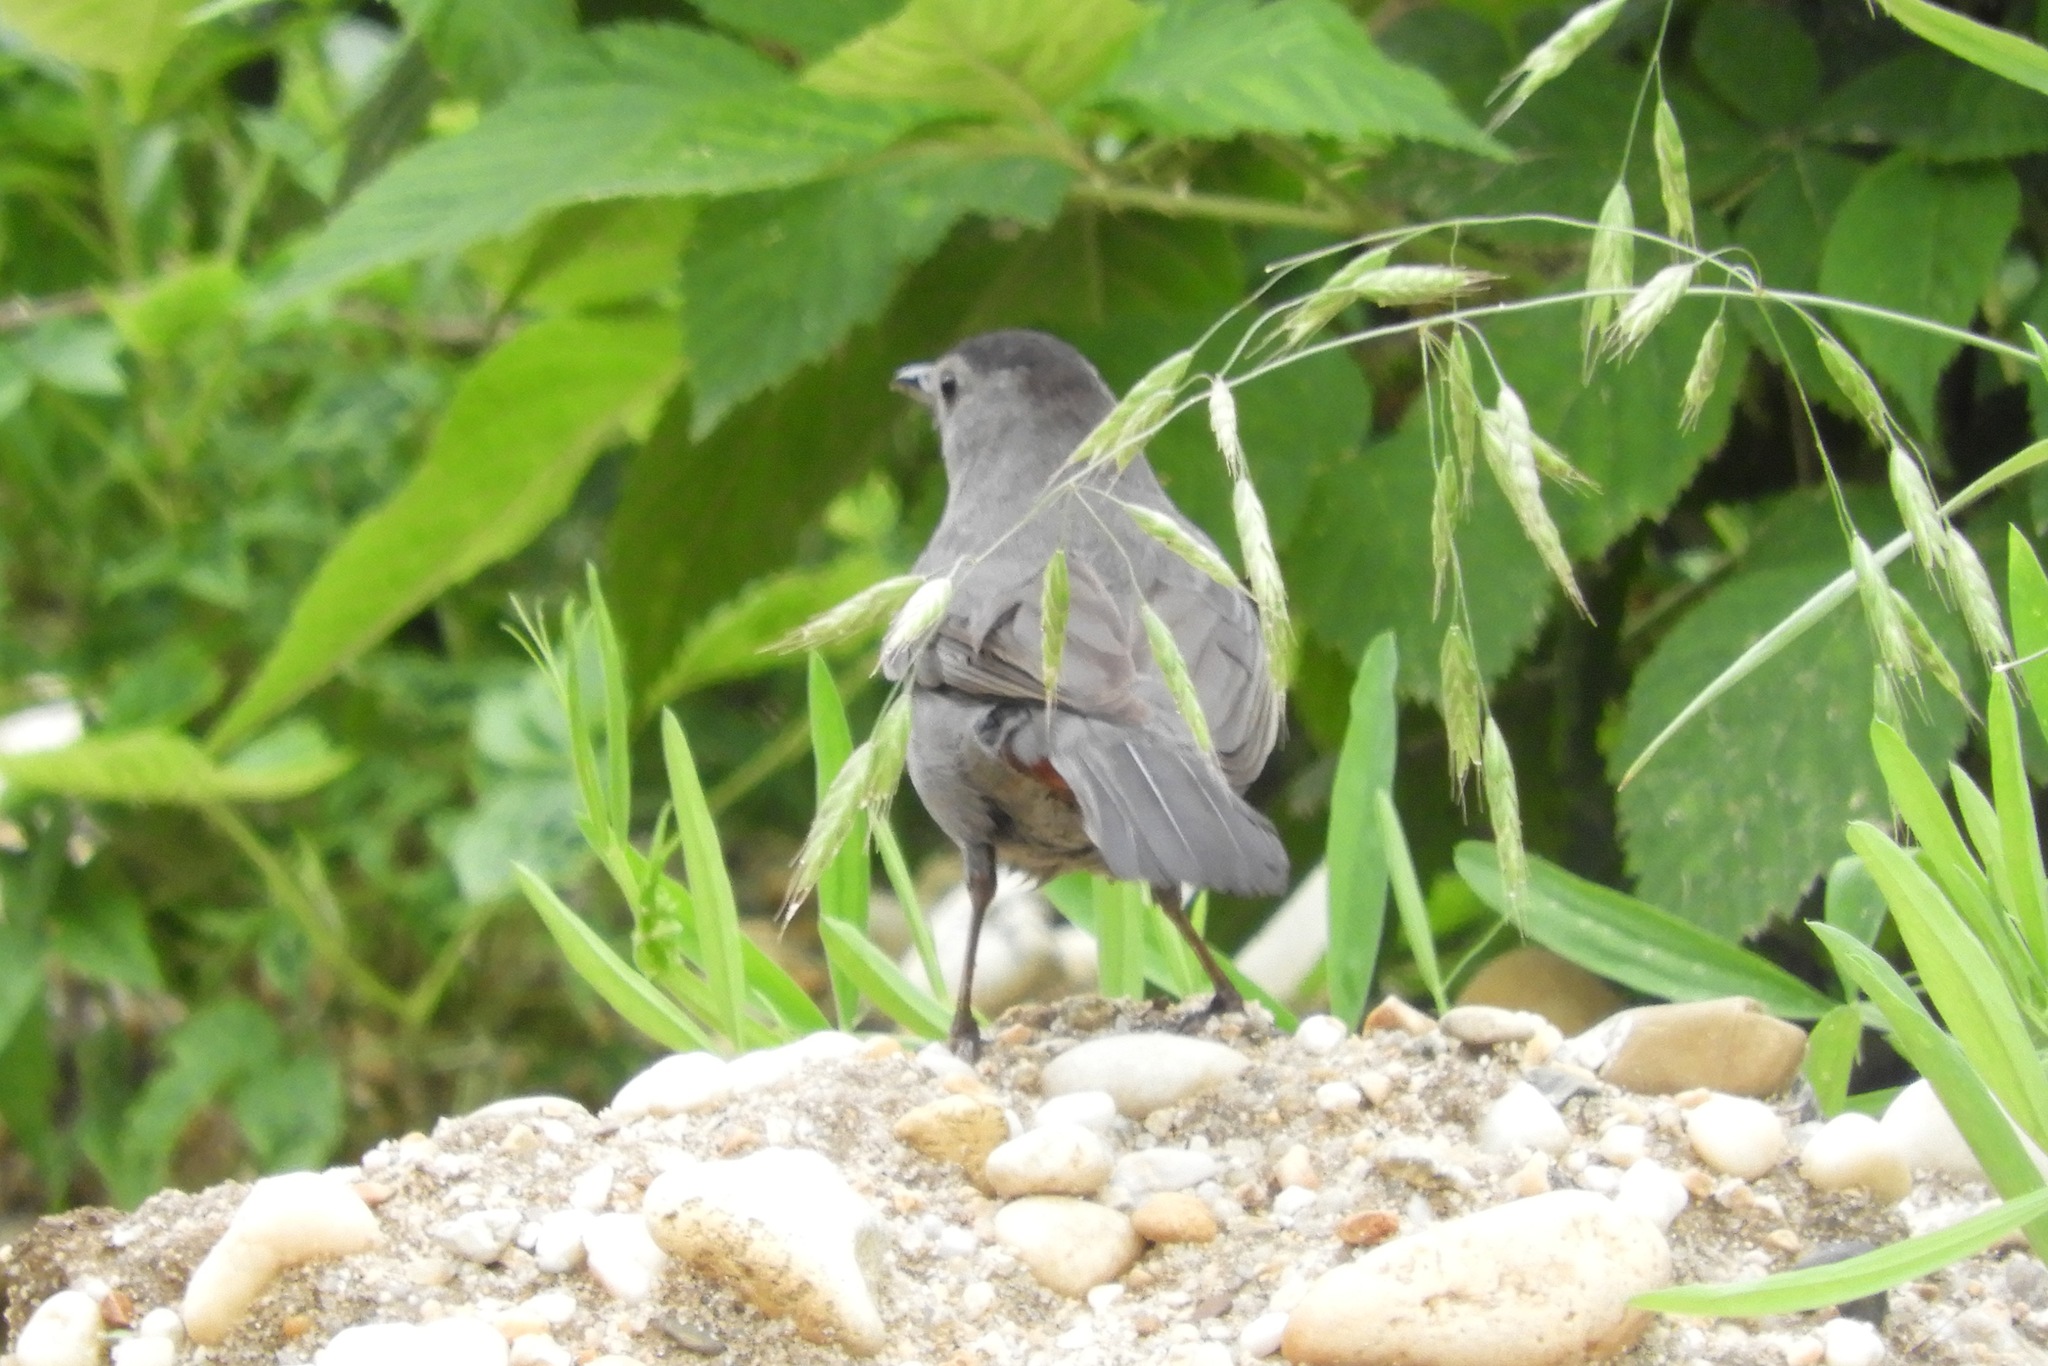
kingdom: Animalia
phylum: Chordata
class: Aves
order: Passeriformes
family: Mimidae
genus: Dumetella
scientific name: Dumetella carolinensis
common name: Gray catbird
